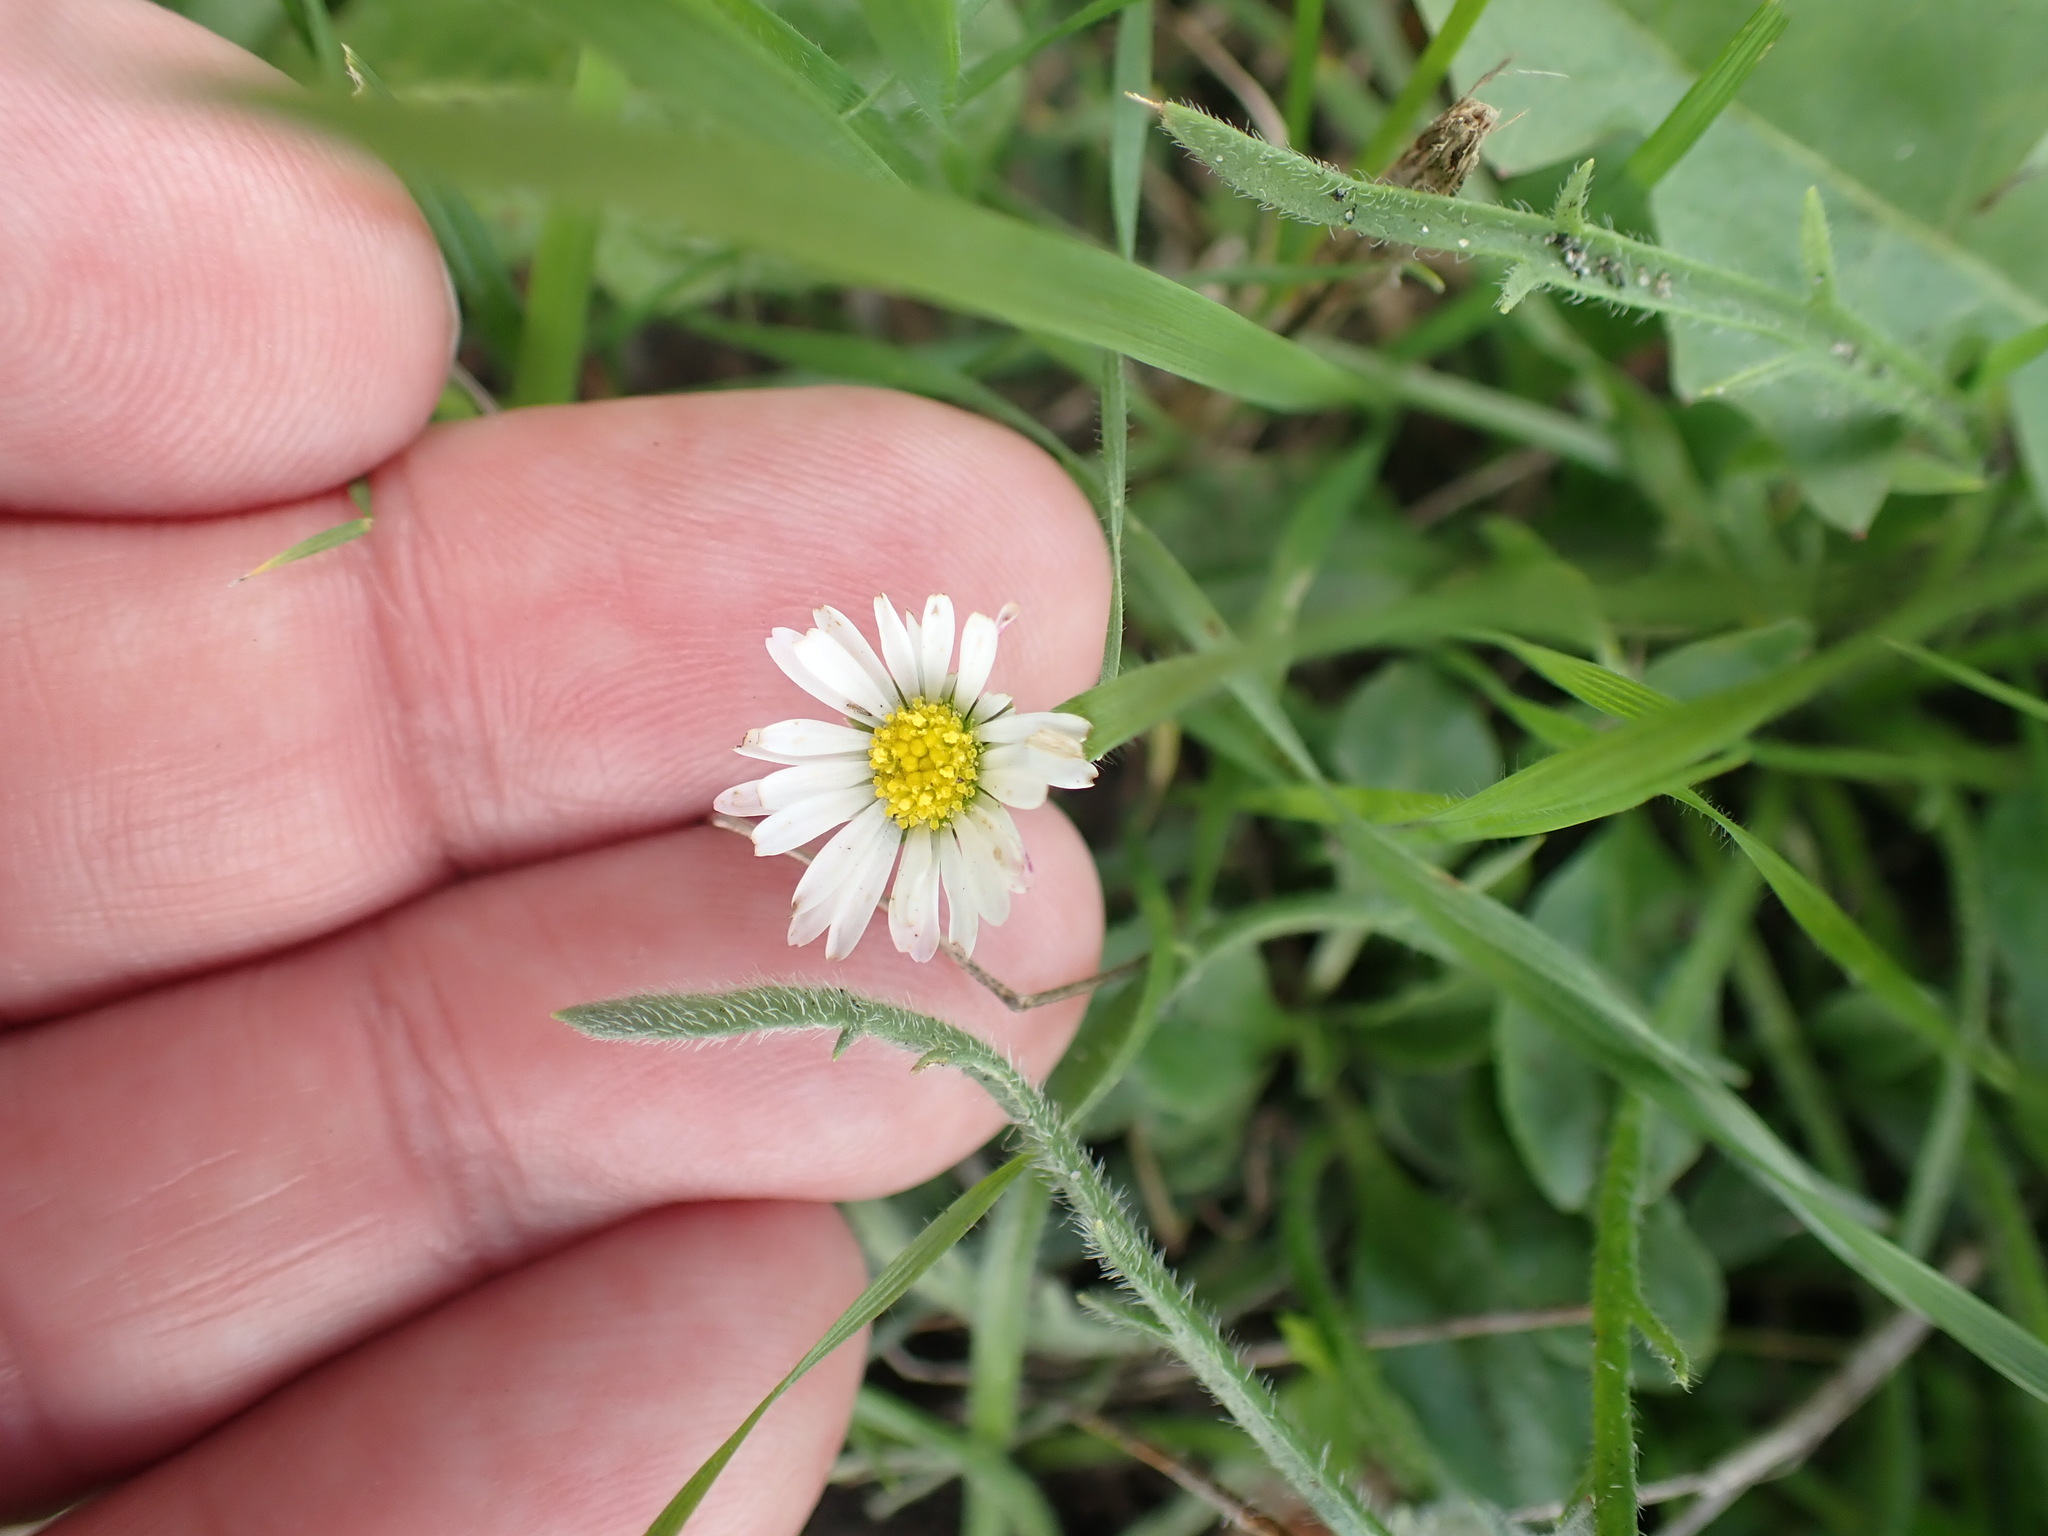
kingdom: Plantae
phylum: Tracheophyta
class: Magnoliopsida
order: Asterales
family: Asteraceae
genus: Bellis
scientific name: Bellis perennis
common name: Lawndaisy
